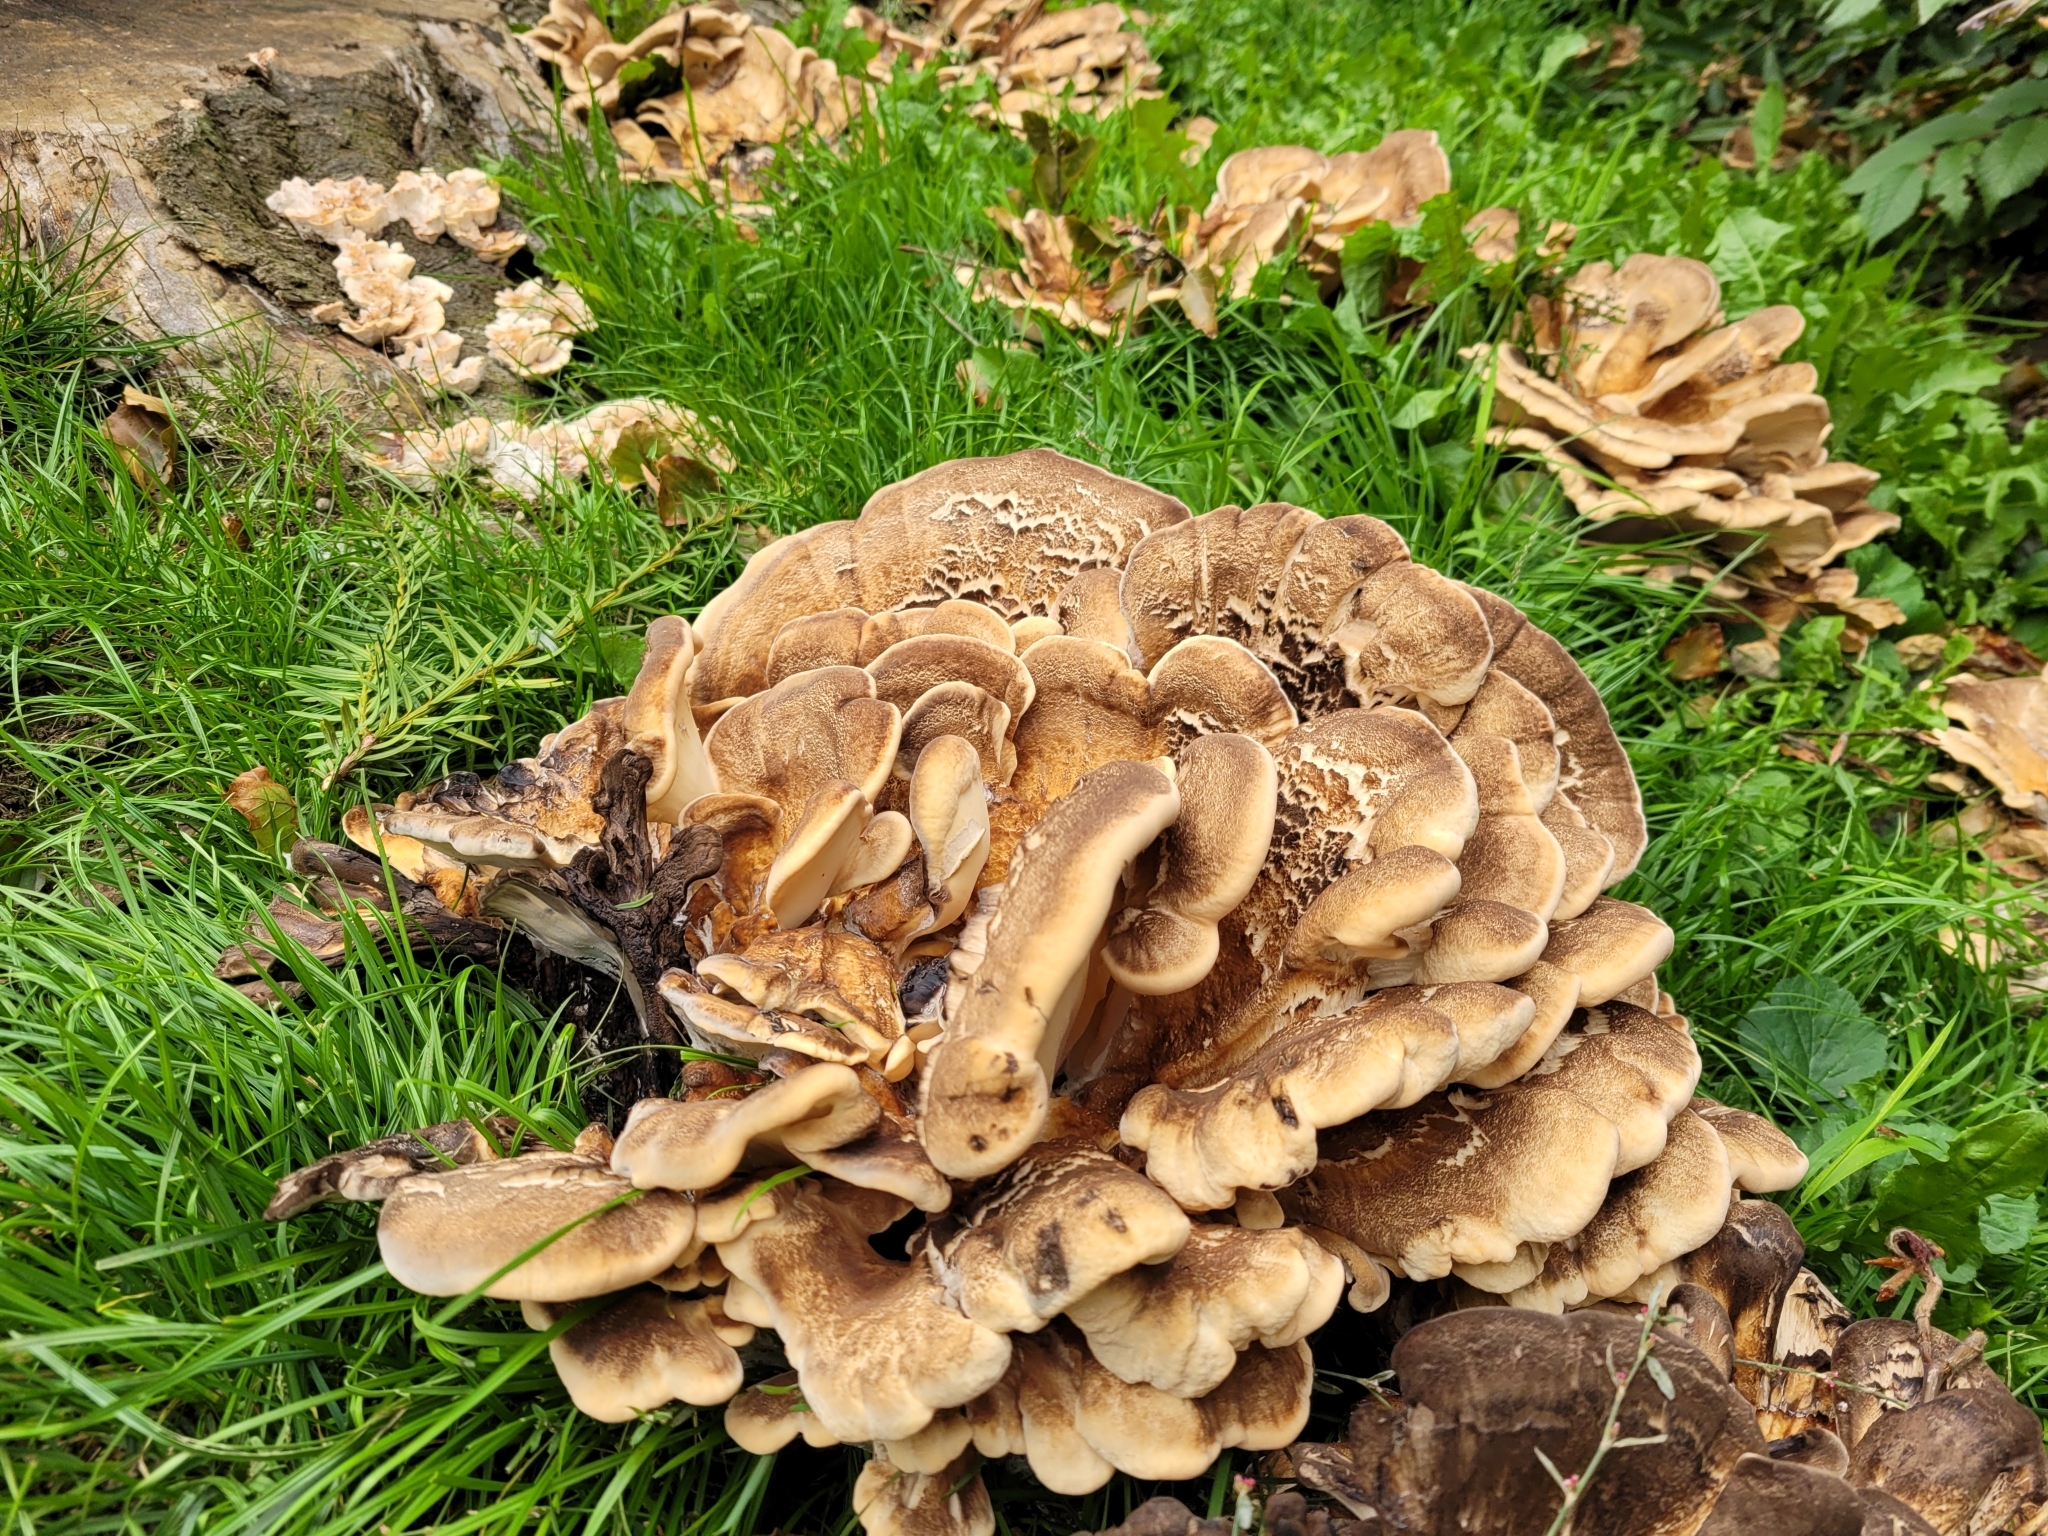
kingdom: Fungi
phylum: Basidiomycota
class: Agaricomycetes
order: Polyporales
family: Meripilaceae
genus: Meripilus
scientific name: Meripilus giganteus
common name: Giant polypore
